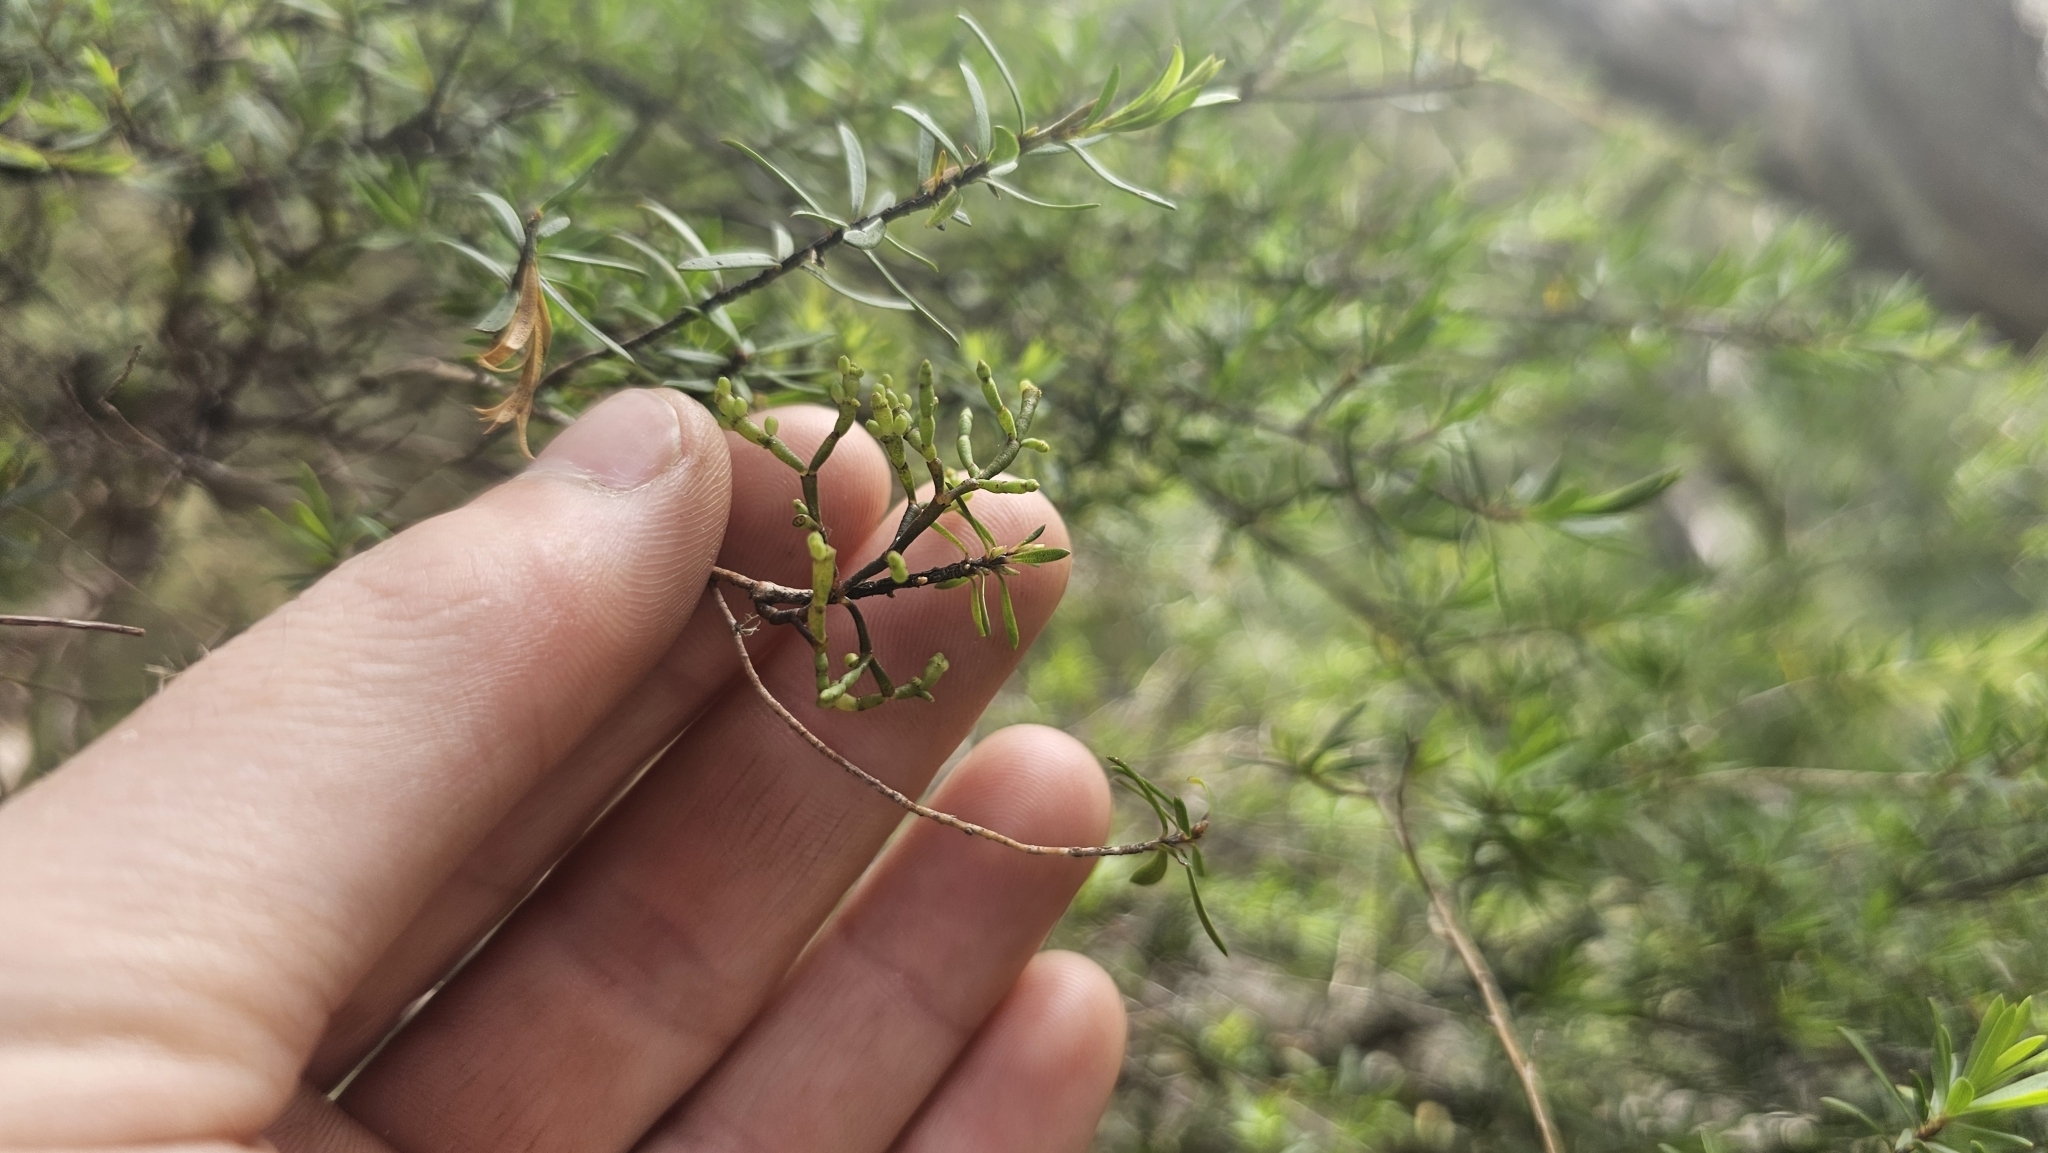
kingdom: Plantae
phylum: Tracheophyta
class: Magnoliopsida
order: Santalales
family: Viscaceae
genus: Korthalsella
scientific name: Korthalsella salicornioides
